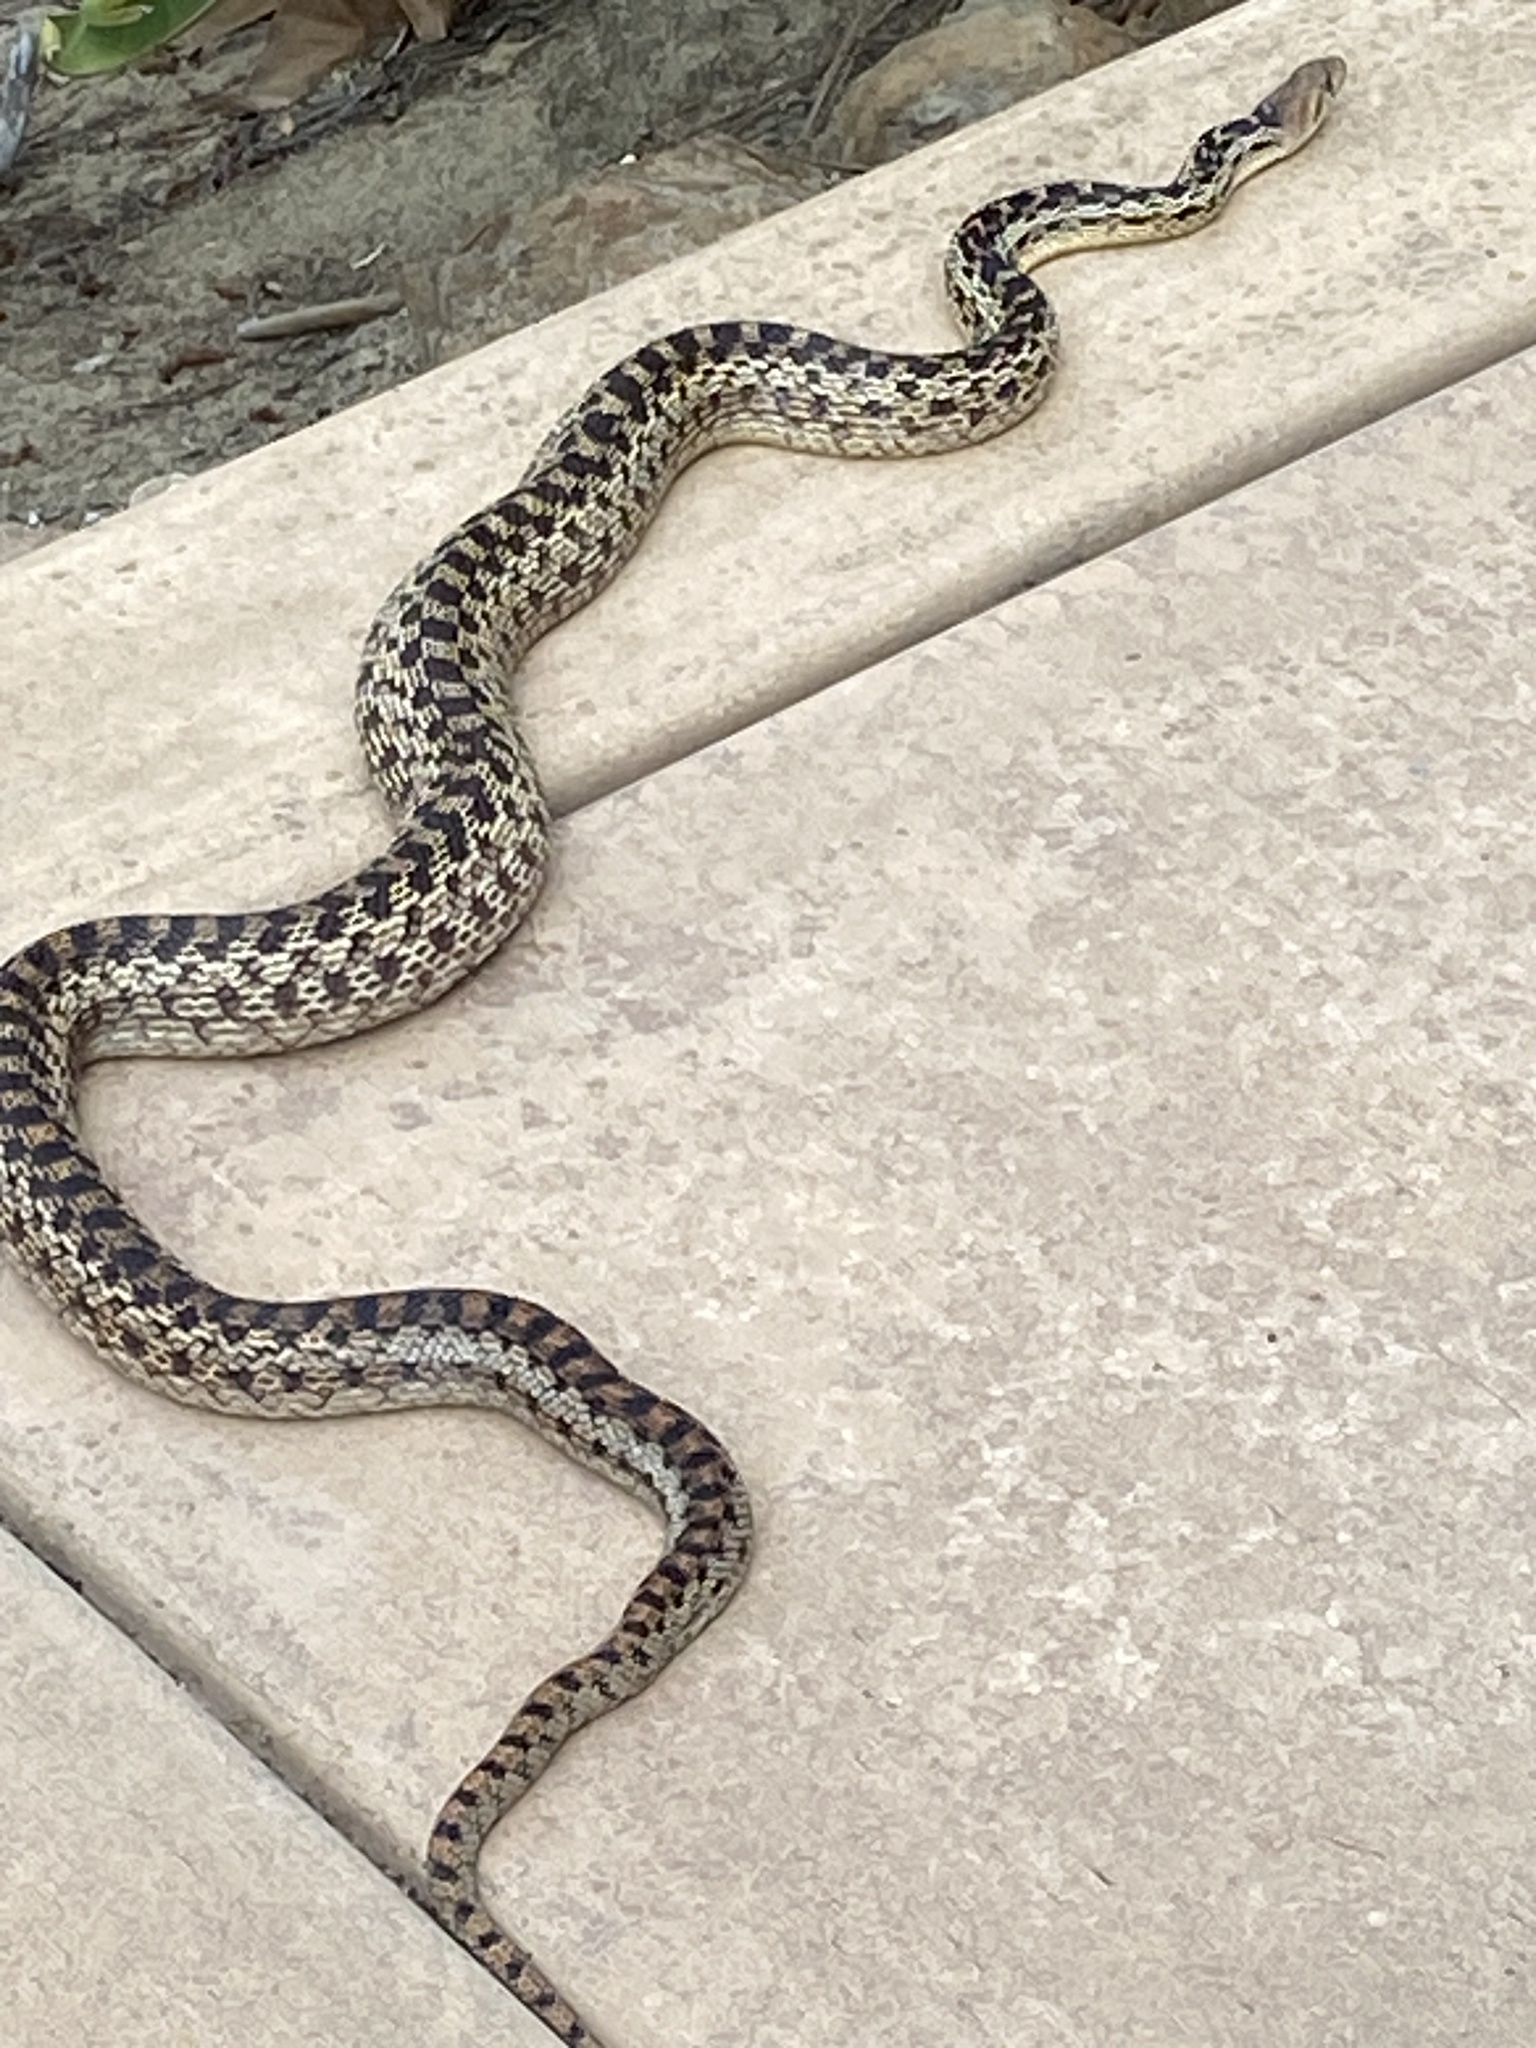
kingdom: Animalia
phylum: Chordata
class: Squamata
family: Colubridae
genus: Pituophis
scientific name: Pituophis catenifer
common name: Gopher snake
